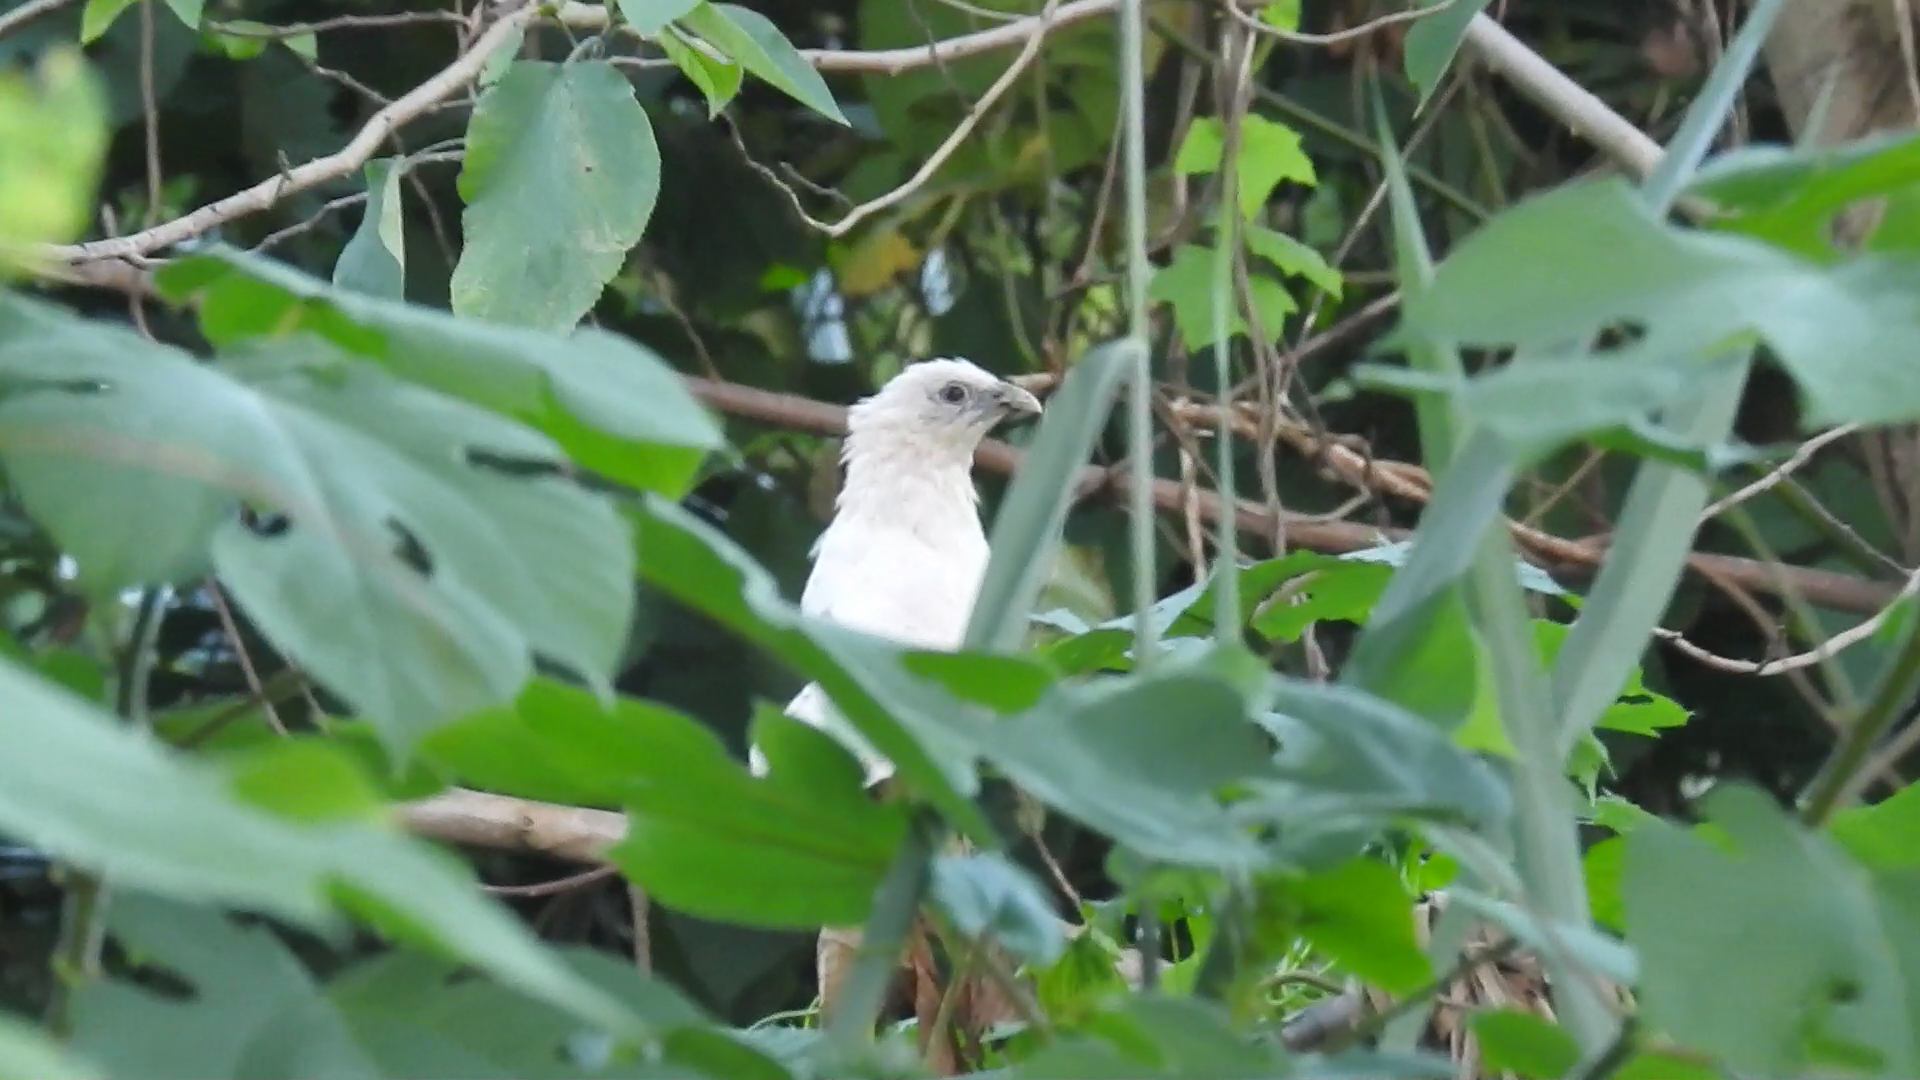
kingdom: Animalia
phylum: Chordata
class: Aves
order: Cuculiformes
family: Cuculidae
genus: Centropus
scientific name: Centropus viridis
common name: Philippine coucal
